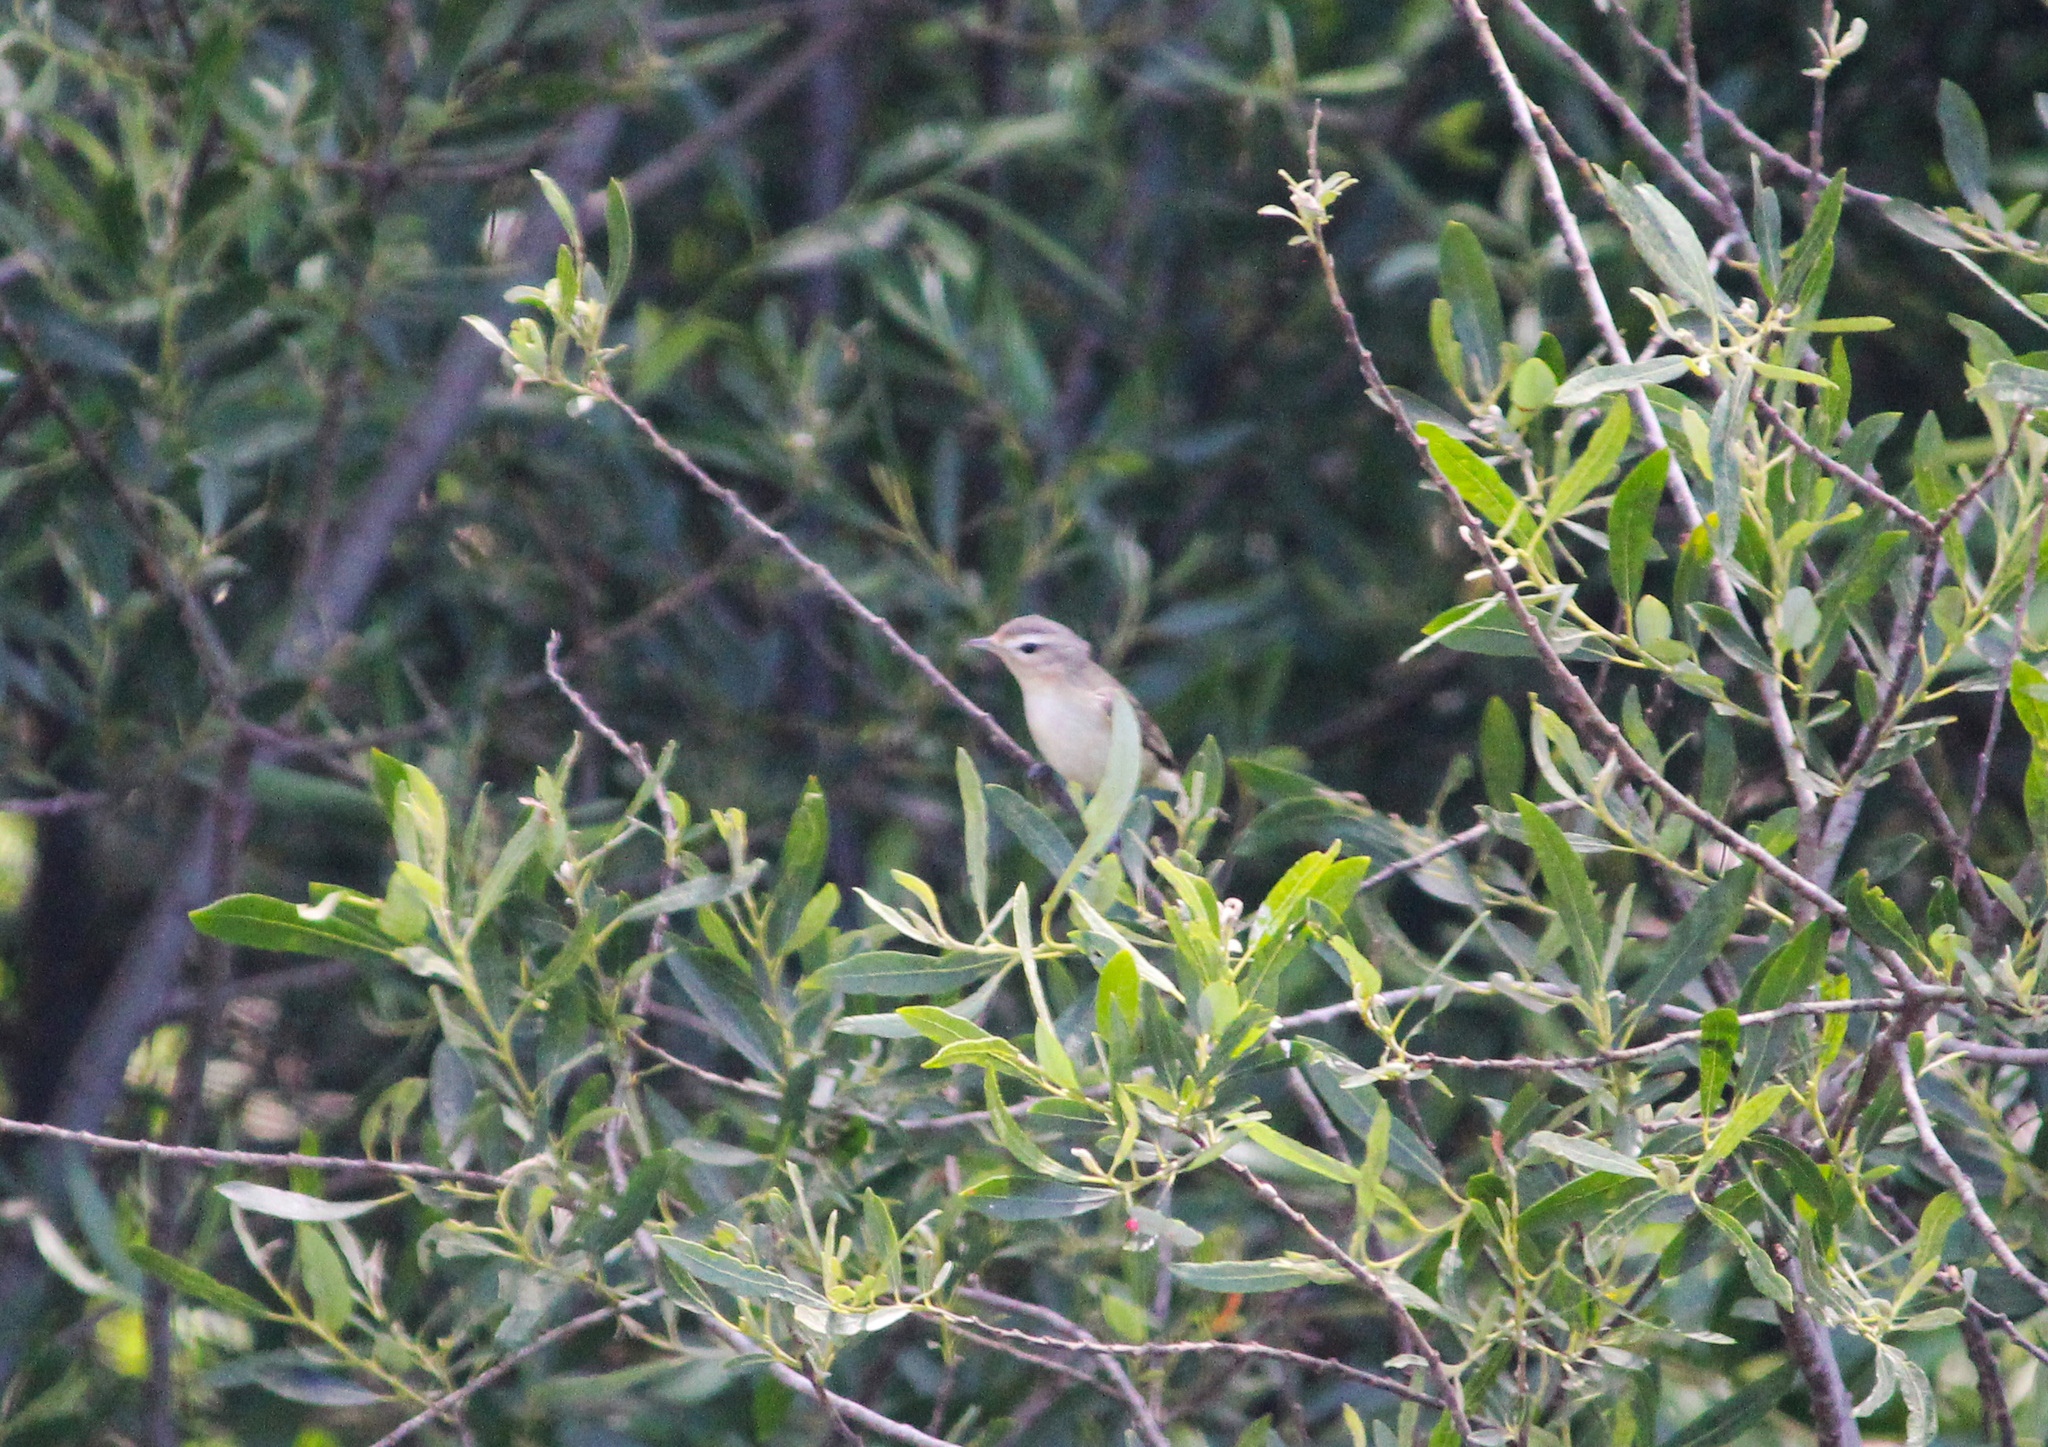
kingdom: Animalia
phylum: Chordata
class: Aves
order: Passeriformes
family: Vireonidae
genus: Vireo
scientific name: Vireo gilvus
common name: Warbling vireo
